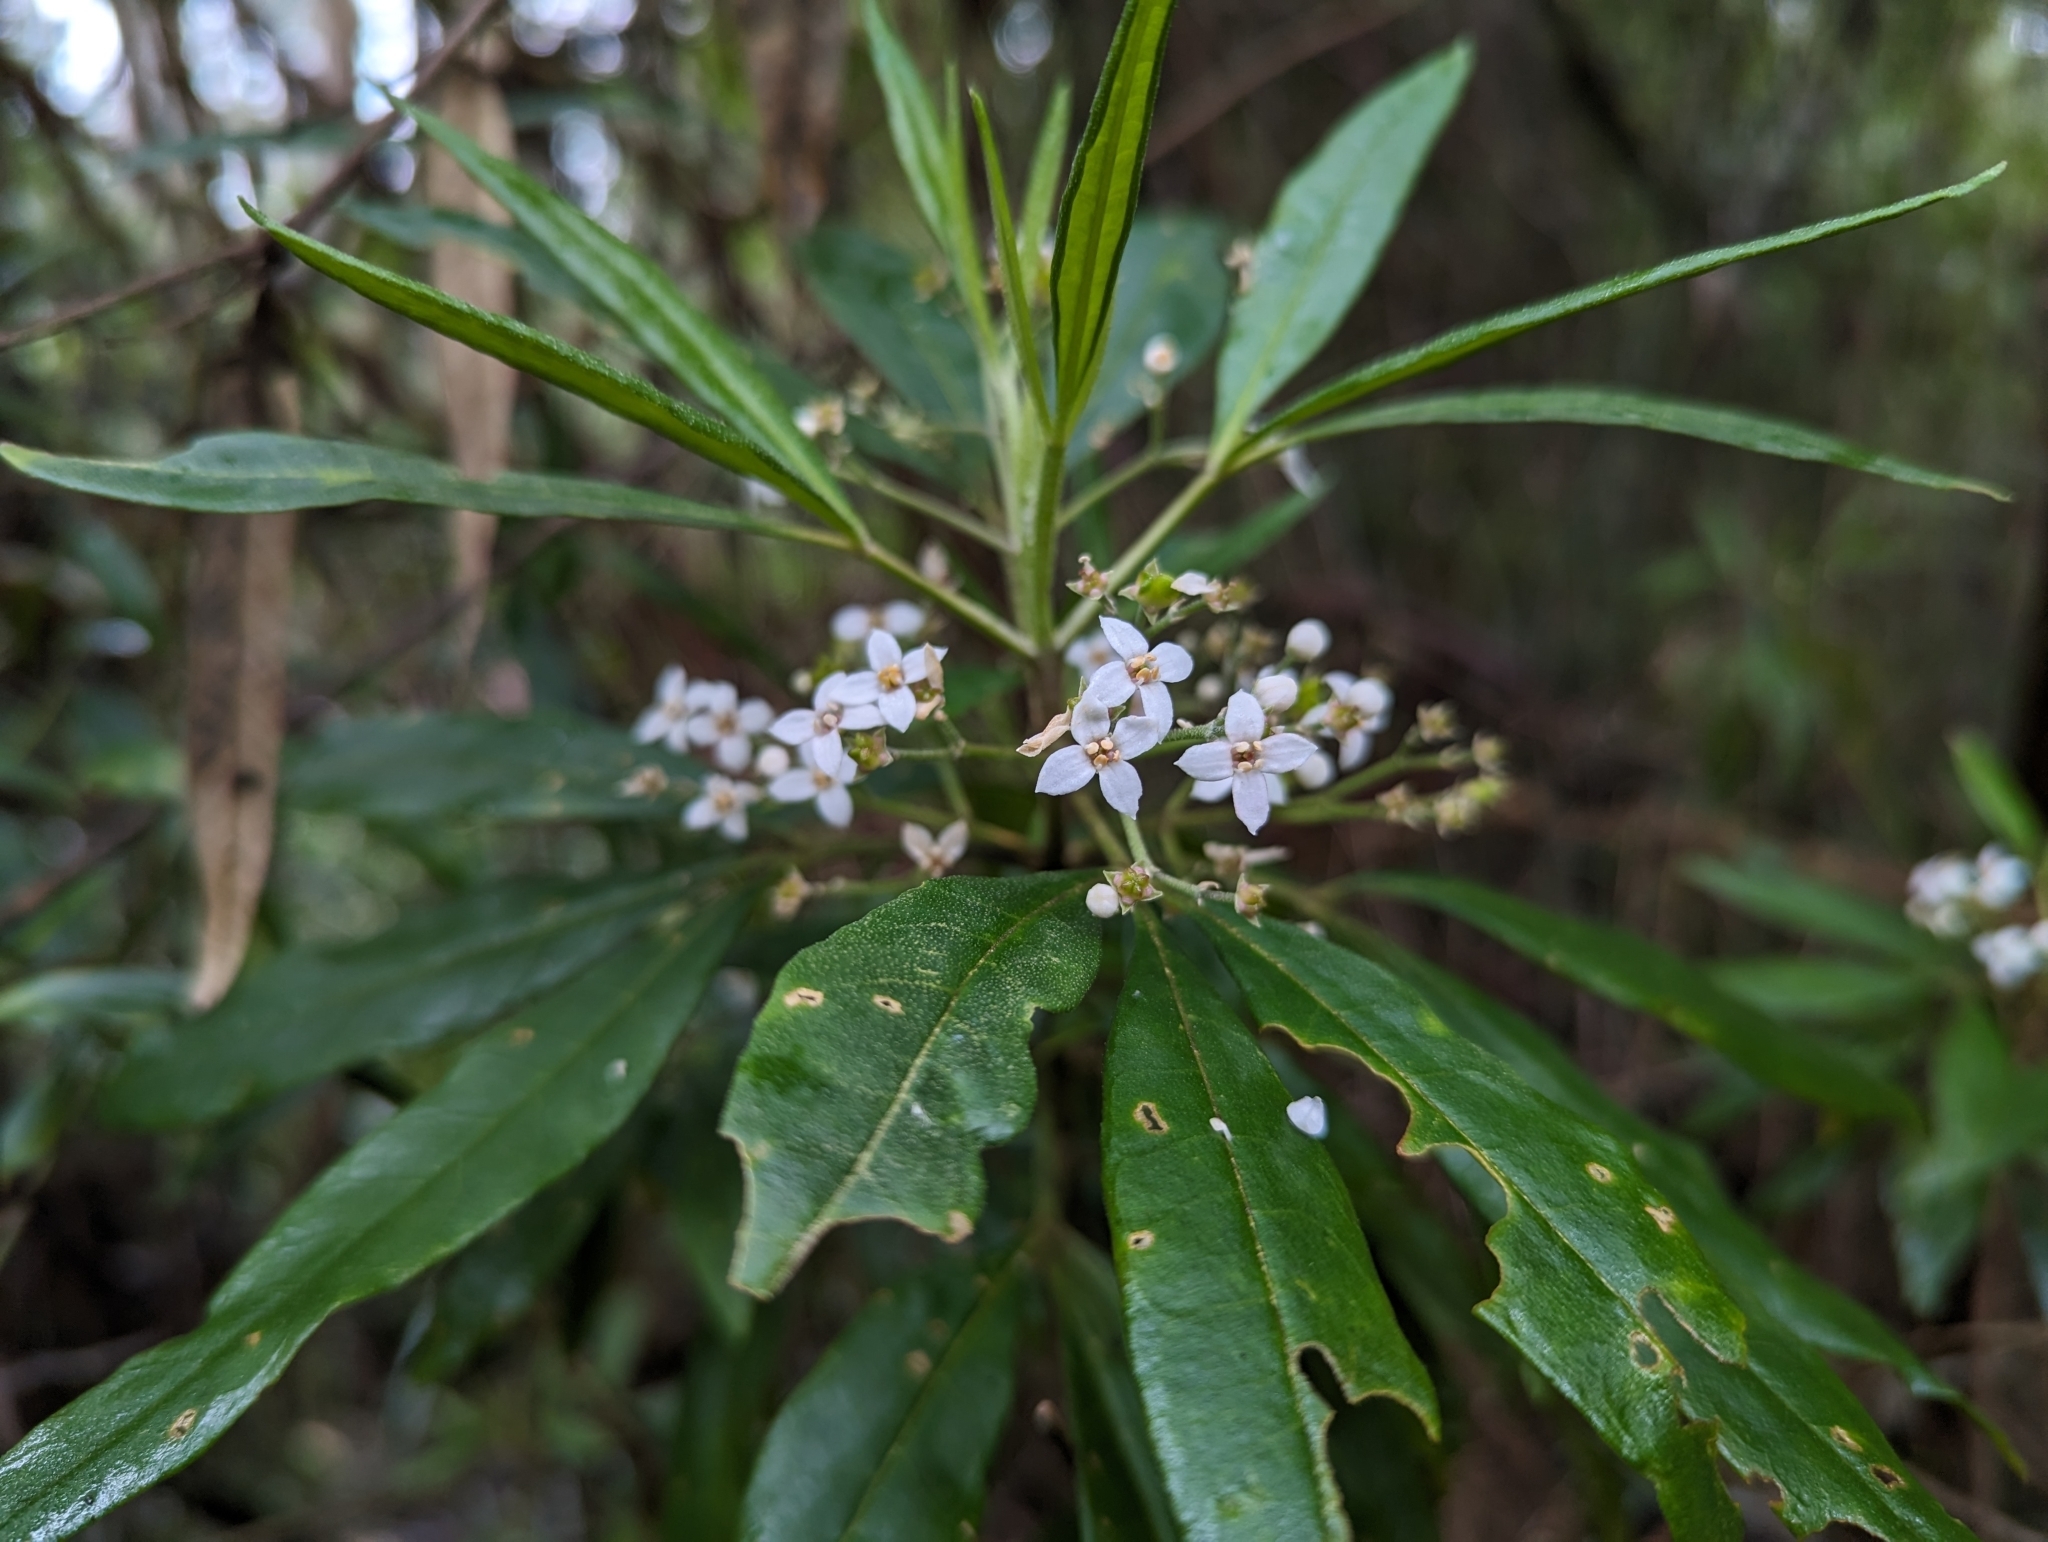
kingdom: Plantae
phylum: Tracheophyta
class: Magnoliopsida
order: Sapindales
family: Rutaceae
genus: Zieria
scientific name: Zieria arborescens
